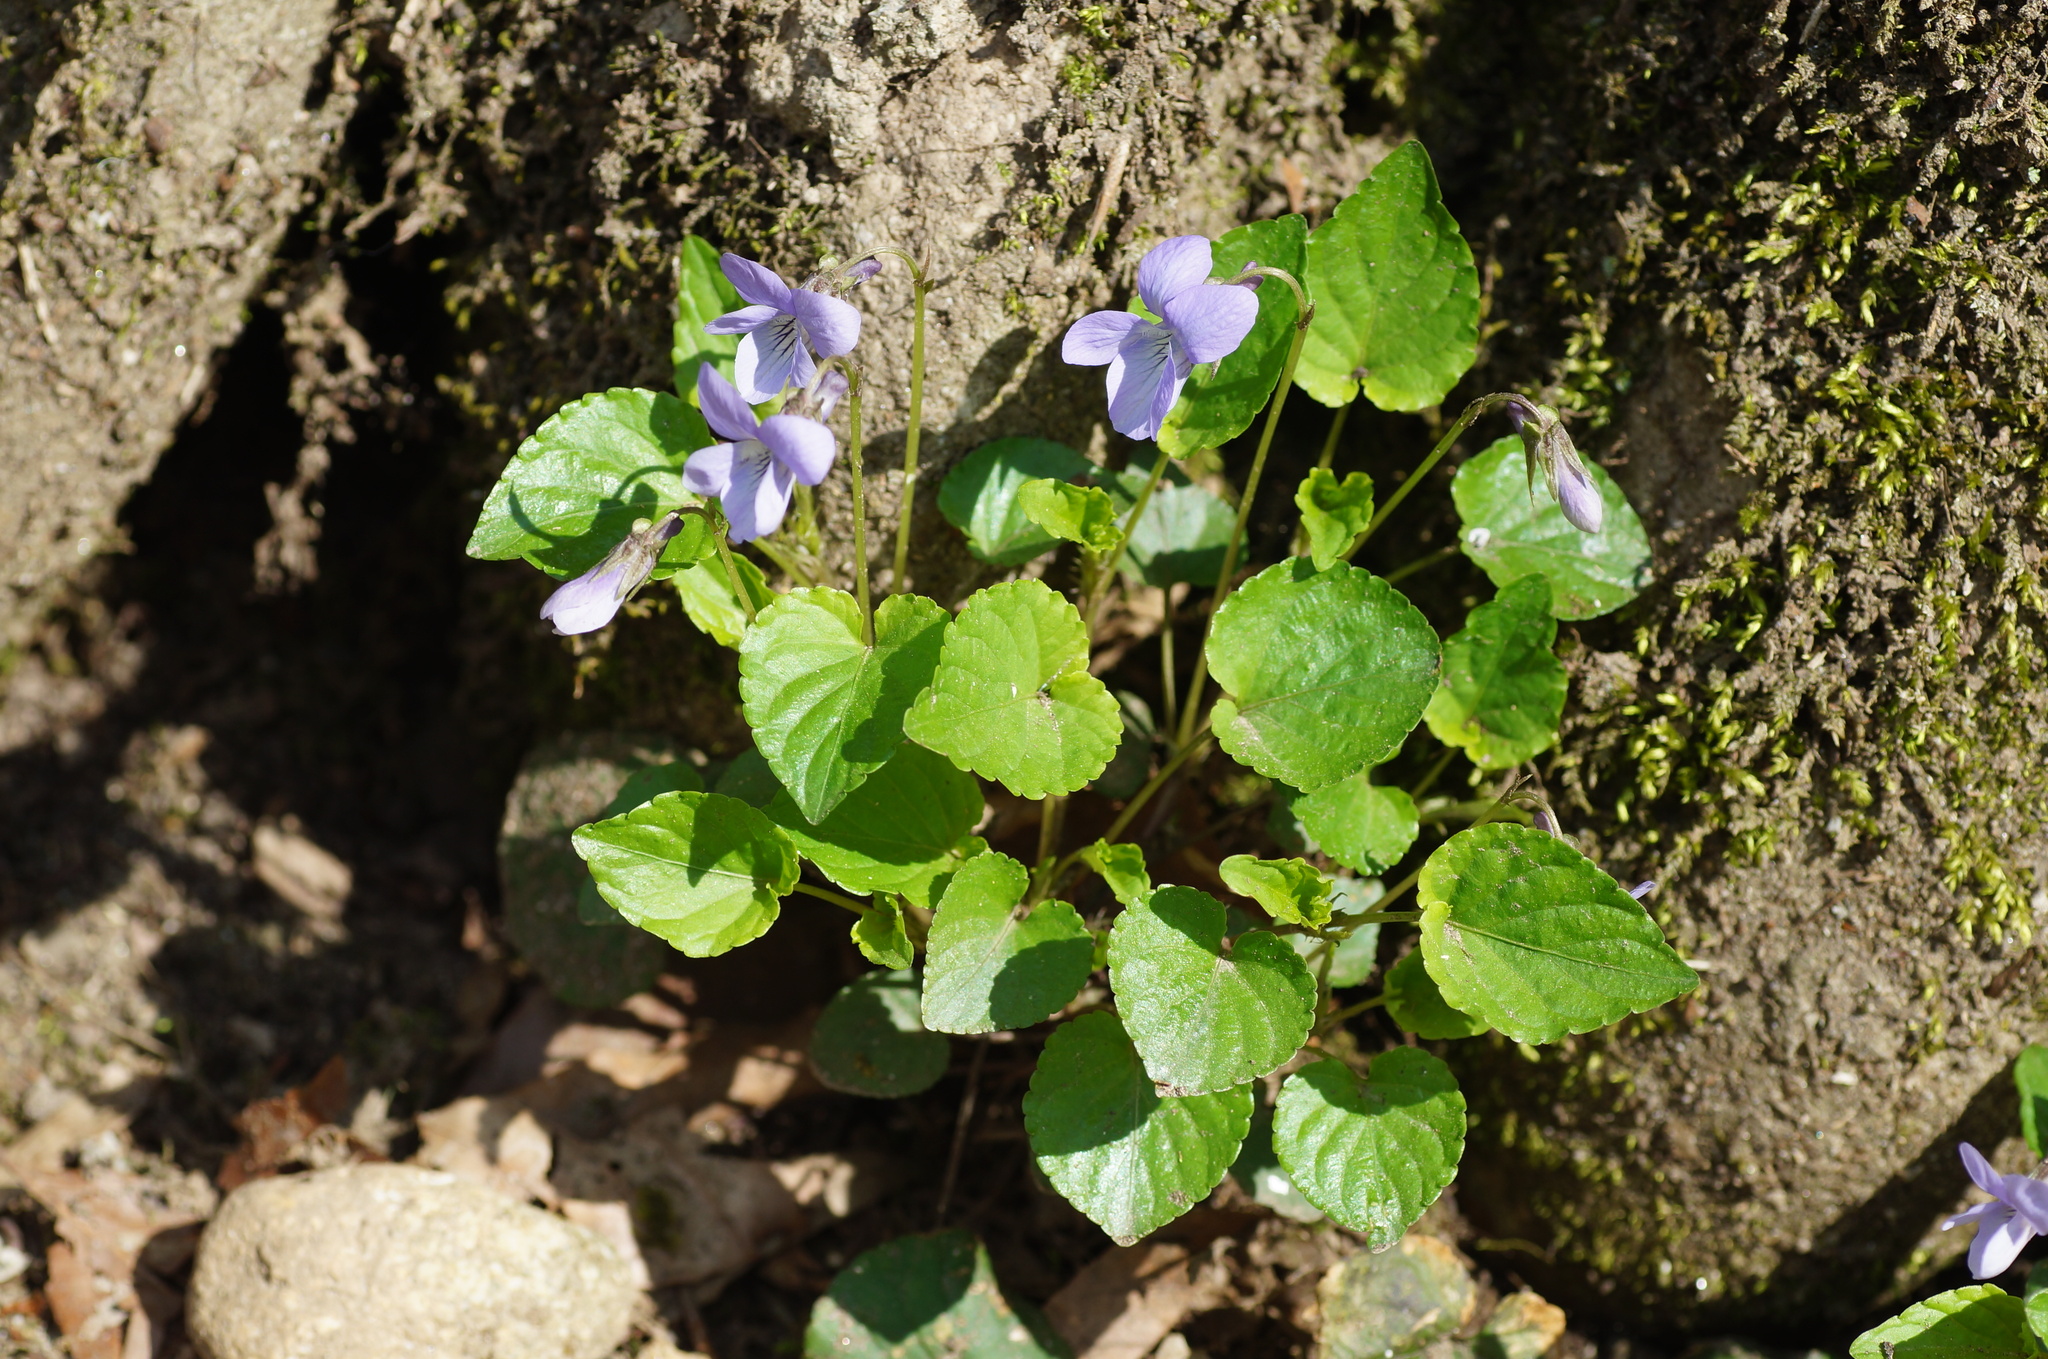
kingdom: Plantae
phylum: Tracheophyta
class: Magnoliopsida
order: Malpighiales
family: Violaceae
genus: Viola
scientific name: Viola reichenbachiana
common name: Early dog-violet
